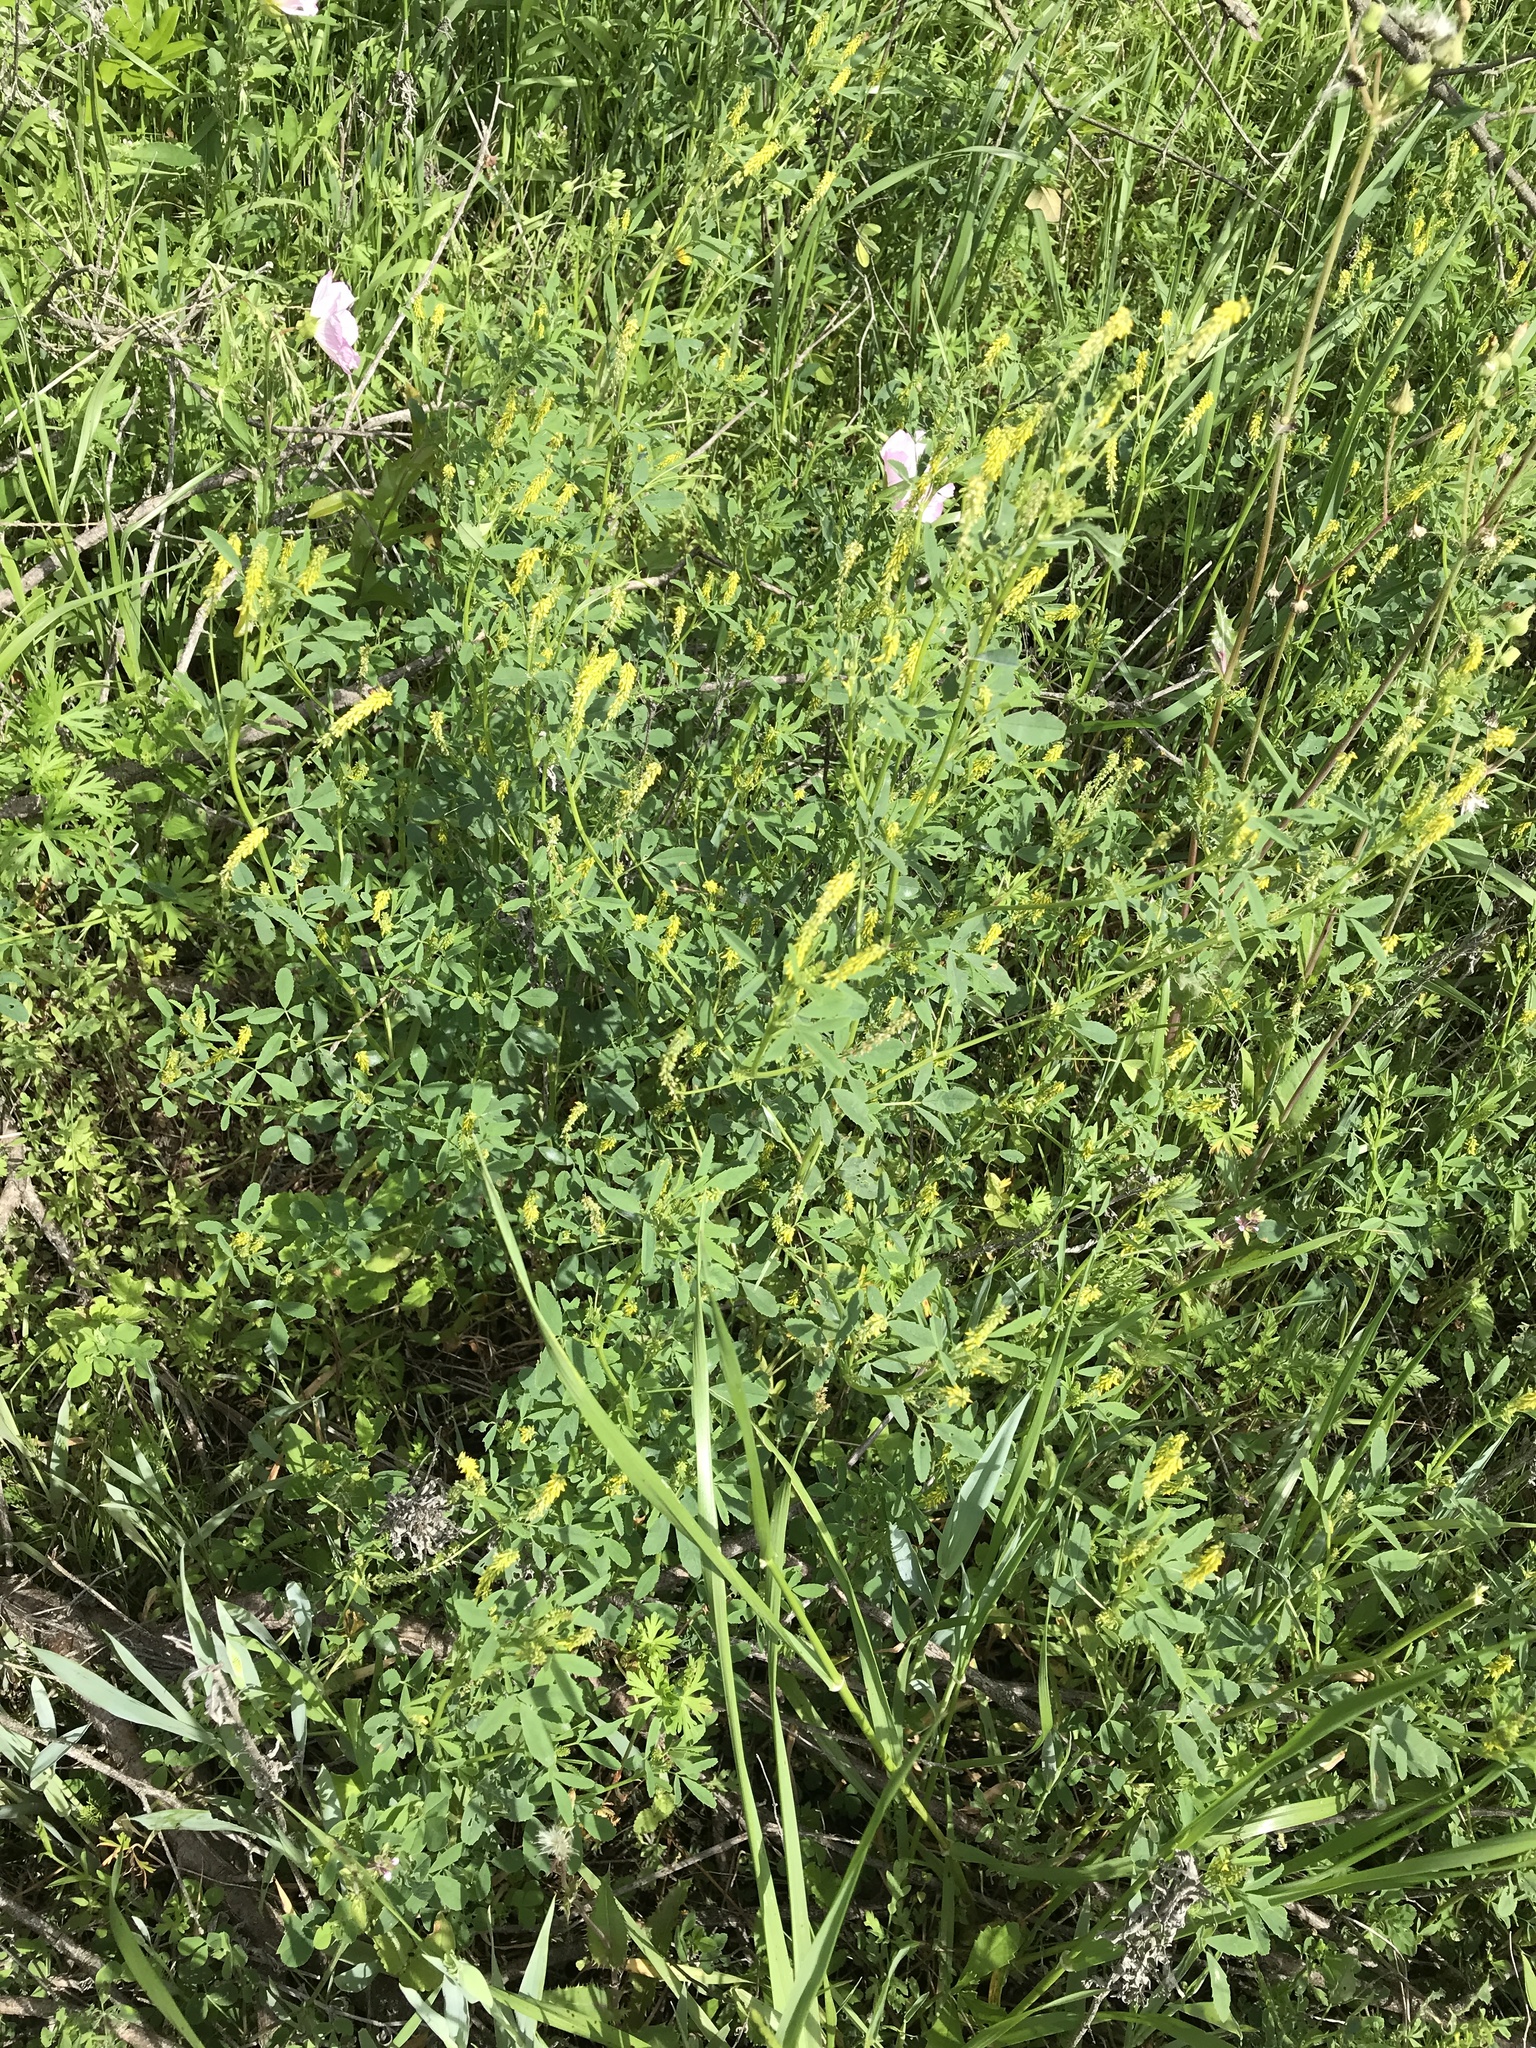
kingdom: Plantae
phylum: Tracheophyta
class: Magnoliopsida
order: Fabales
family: Fabaceae
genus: Melilotus
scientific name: Melilotus indicus
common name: Small melilot
